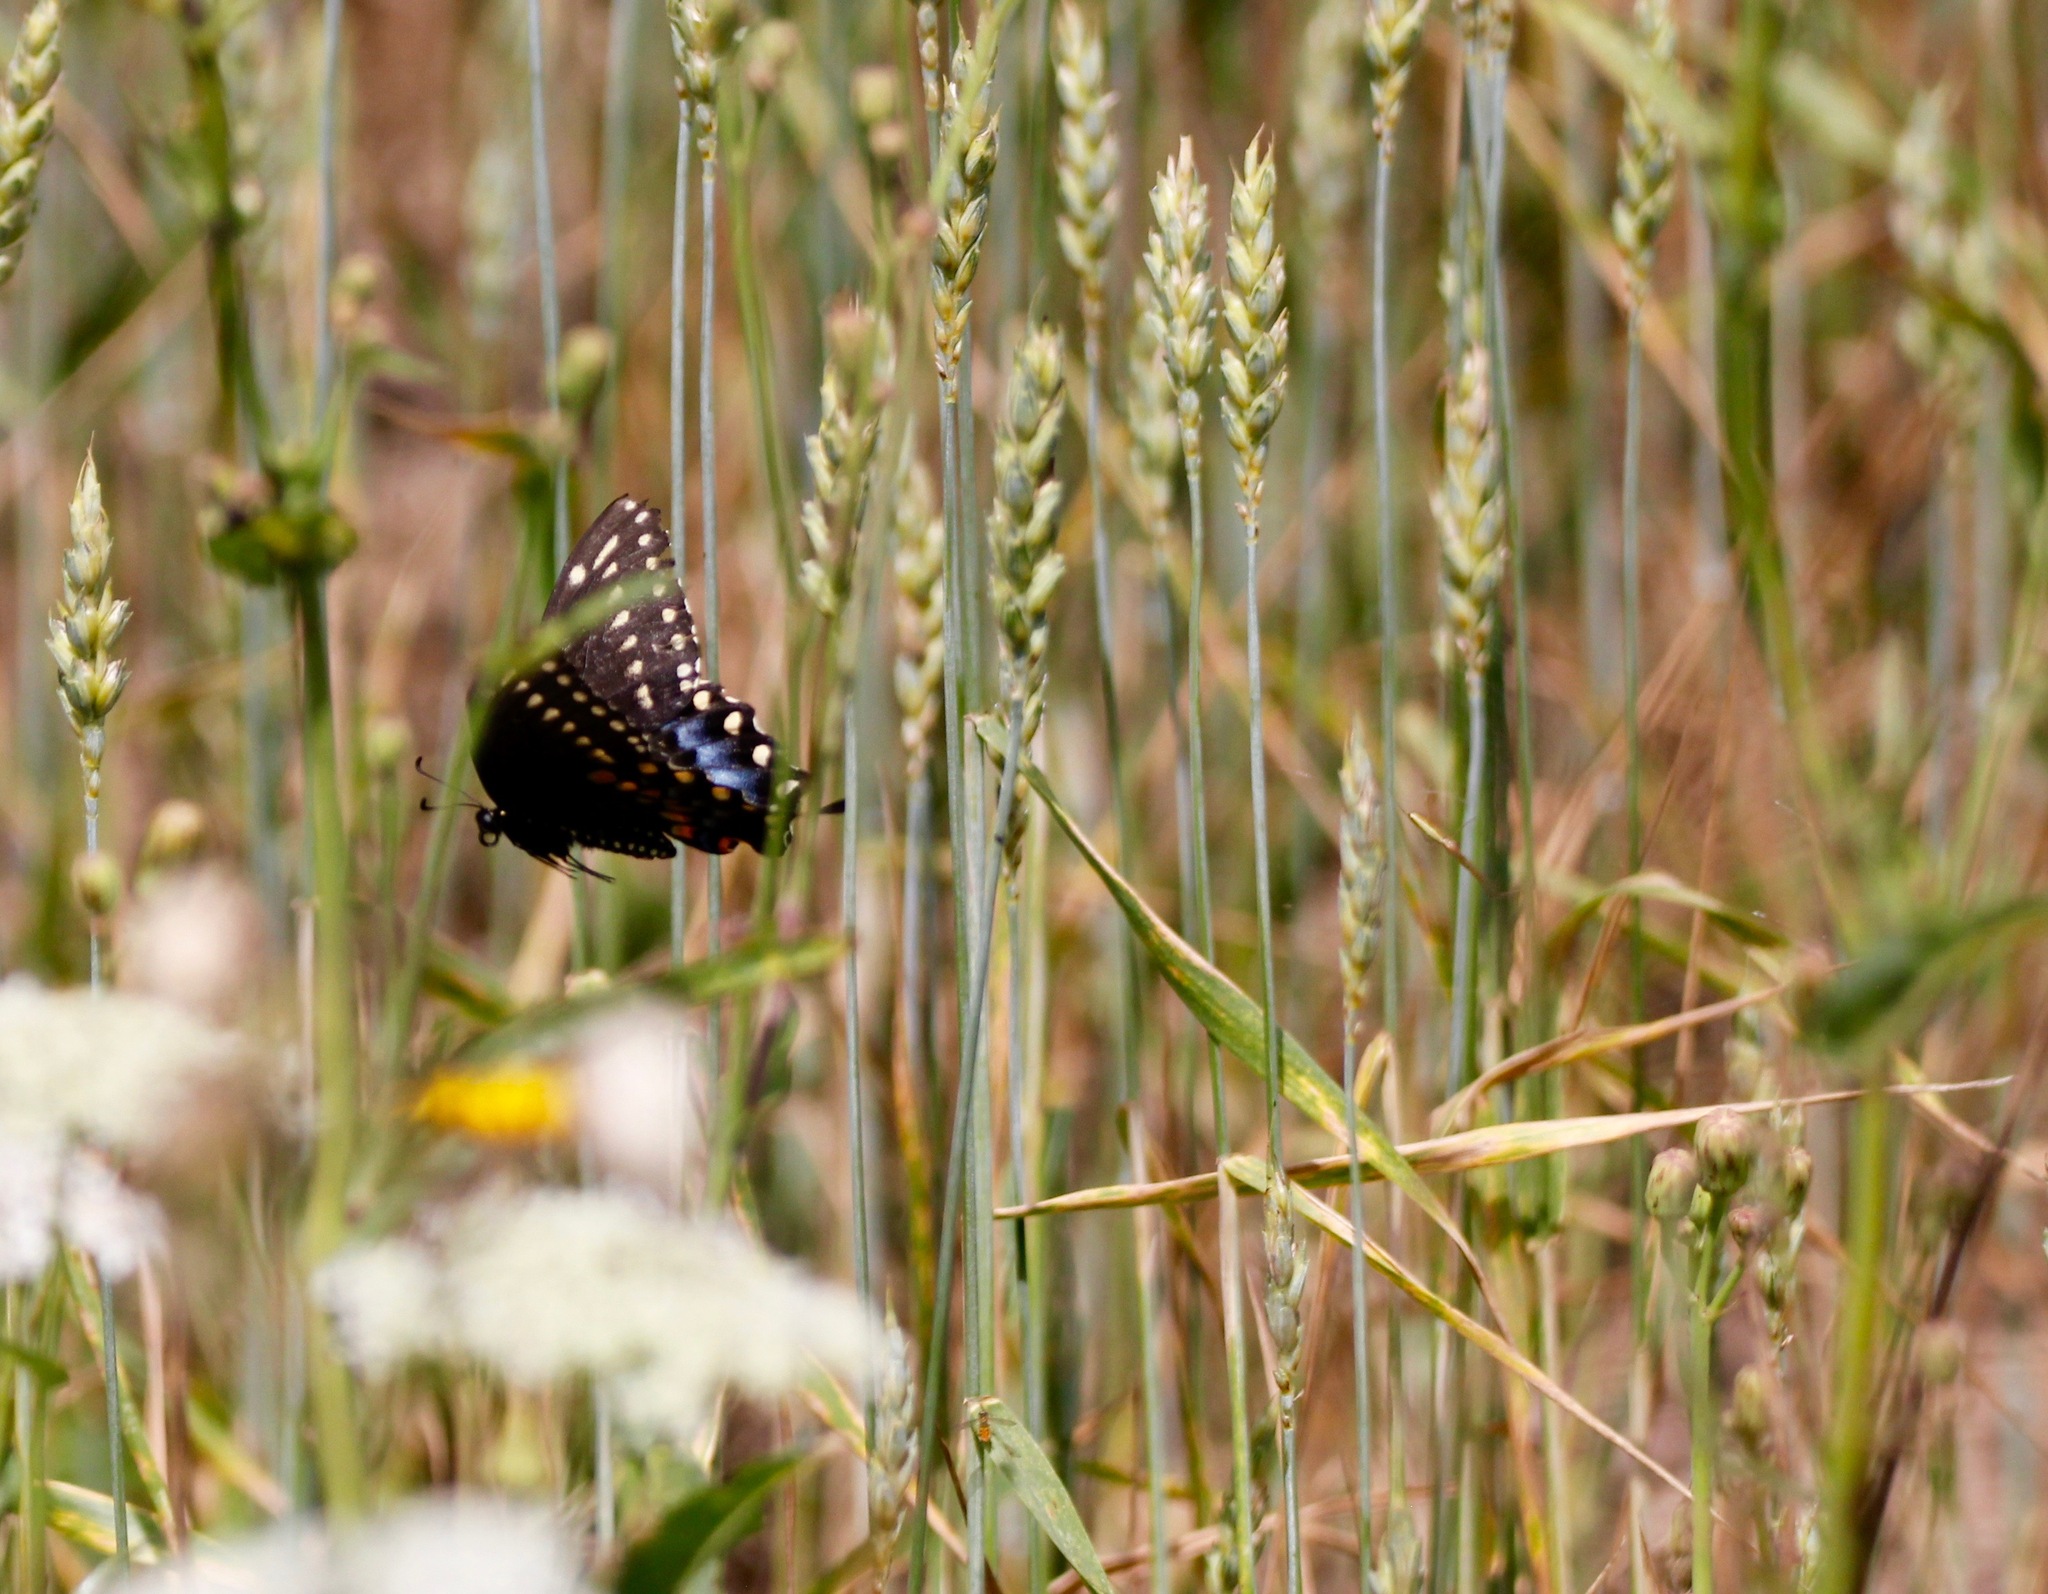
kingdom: Animalia
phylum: Arthropoda
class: Insecta
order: Lepidoptera
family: Papilionidae
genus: Papilio
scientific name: Papilio polyxenes
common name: Black swallowtail
